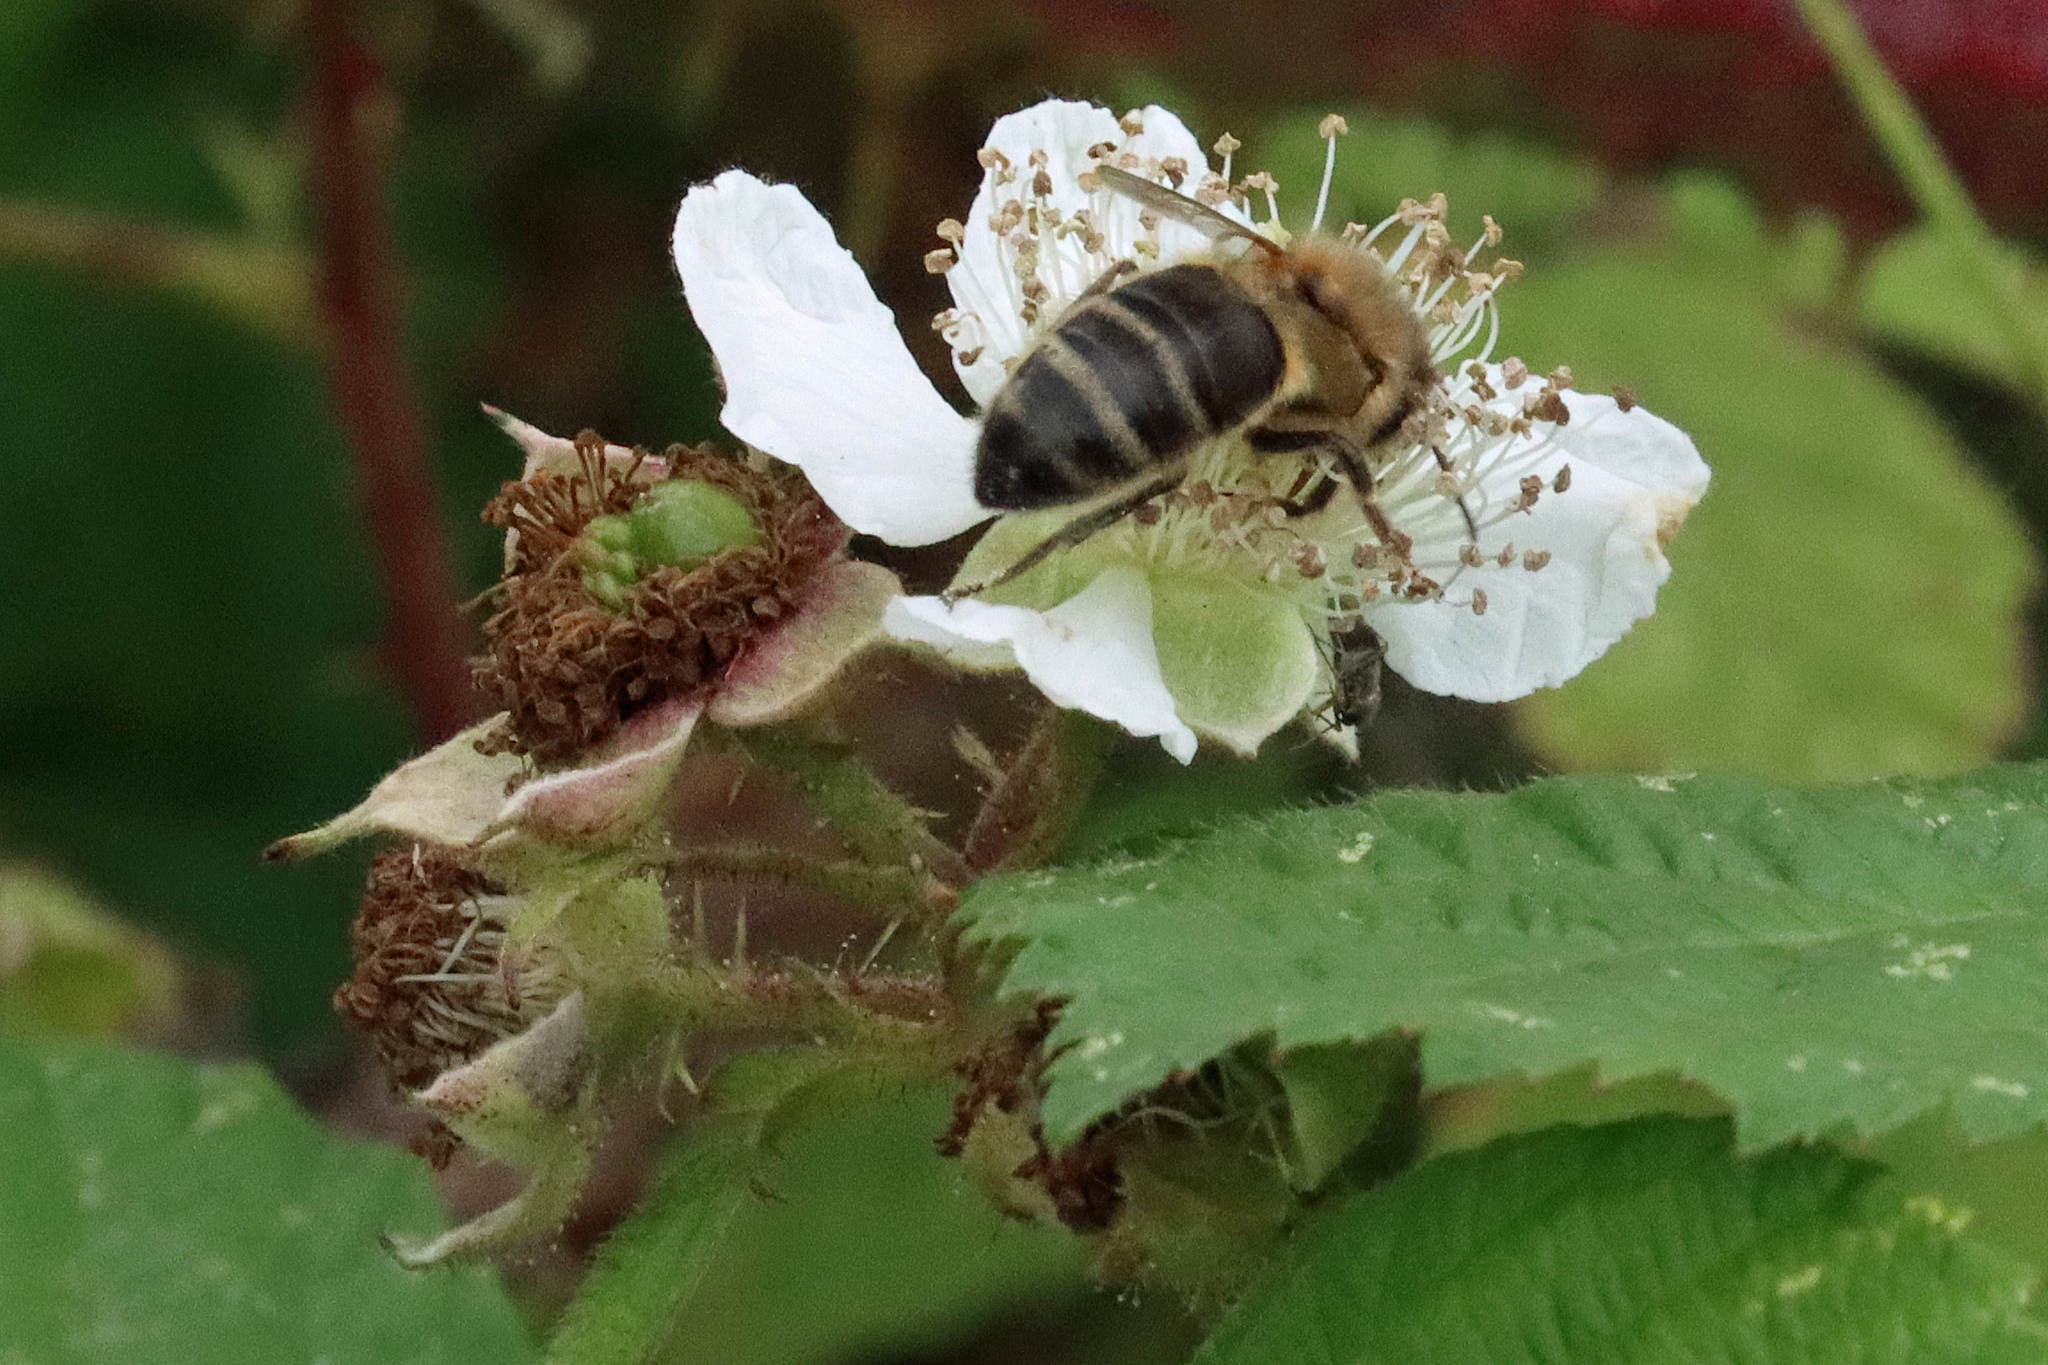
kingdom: Animalia
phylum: Arthropoda
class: Insecta
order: Hymenoptera
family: Apidae
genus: Apis
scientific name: Apis mellifera
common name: Honey bee
